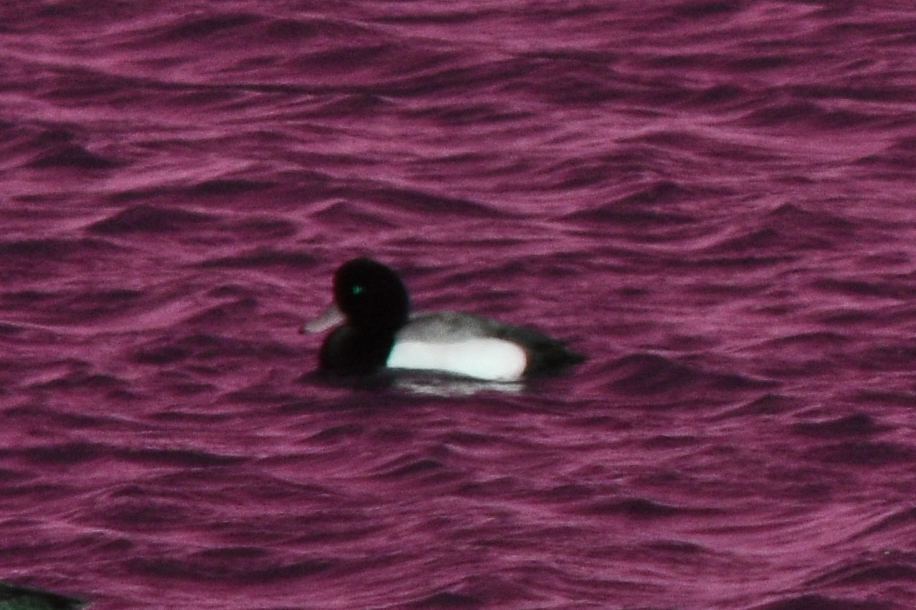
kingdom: Animalia
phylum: Chordata
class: Aves
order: Anseriformes
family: Anatidae
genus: Aythya
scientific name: Aythya marila
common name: Greater scaup
